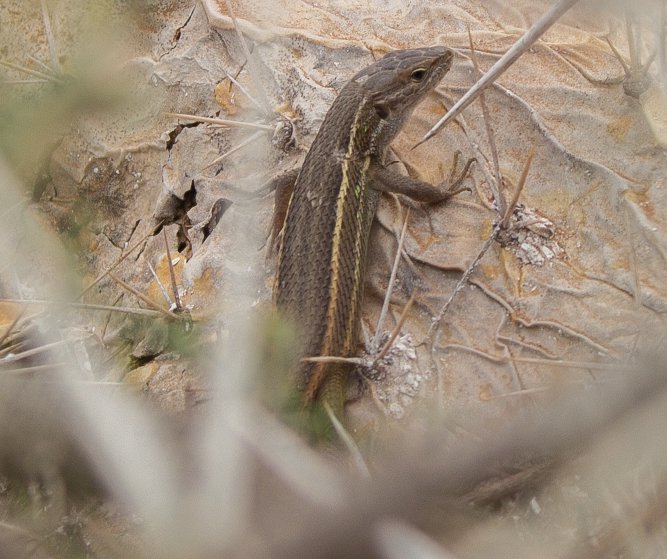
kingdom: Animalia
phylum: Chordata
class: Squamata
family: Lacertidae
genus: Psammodromus
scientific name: Psammodromus algirus
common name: Algerian psammodromus
